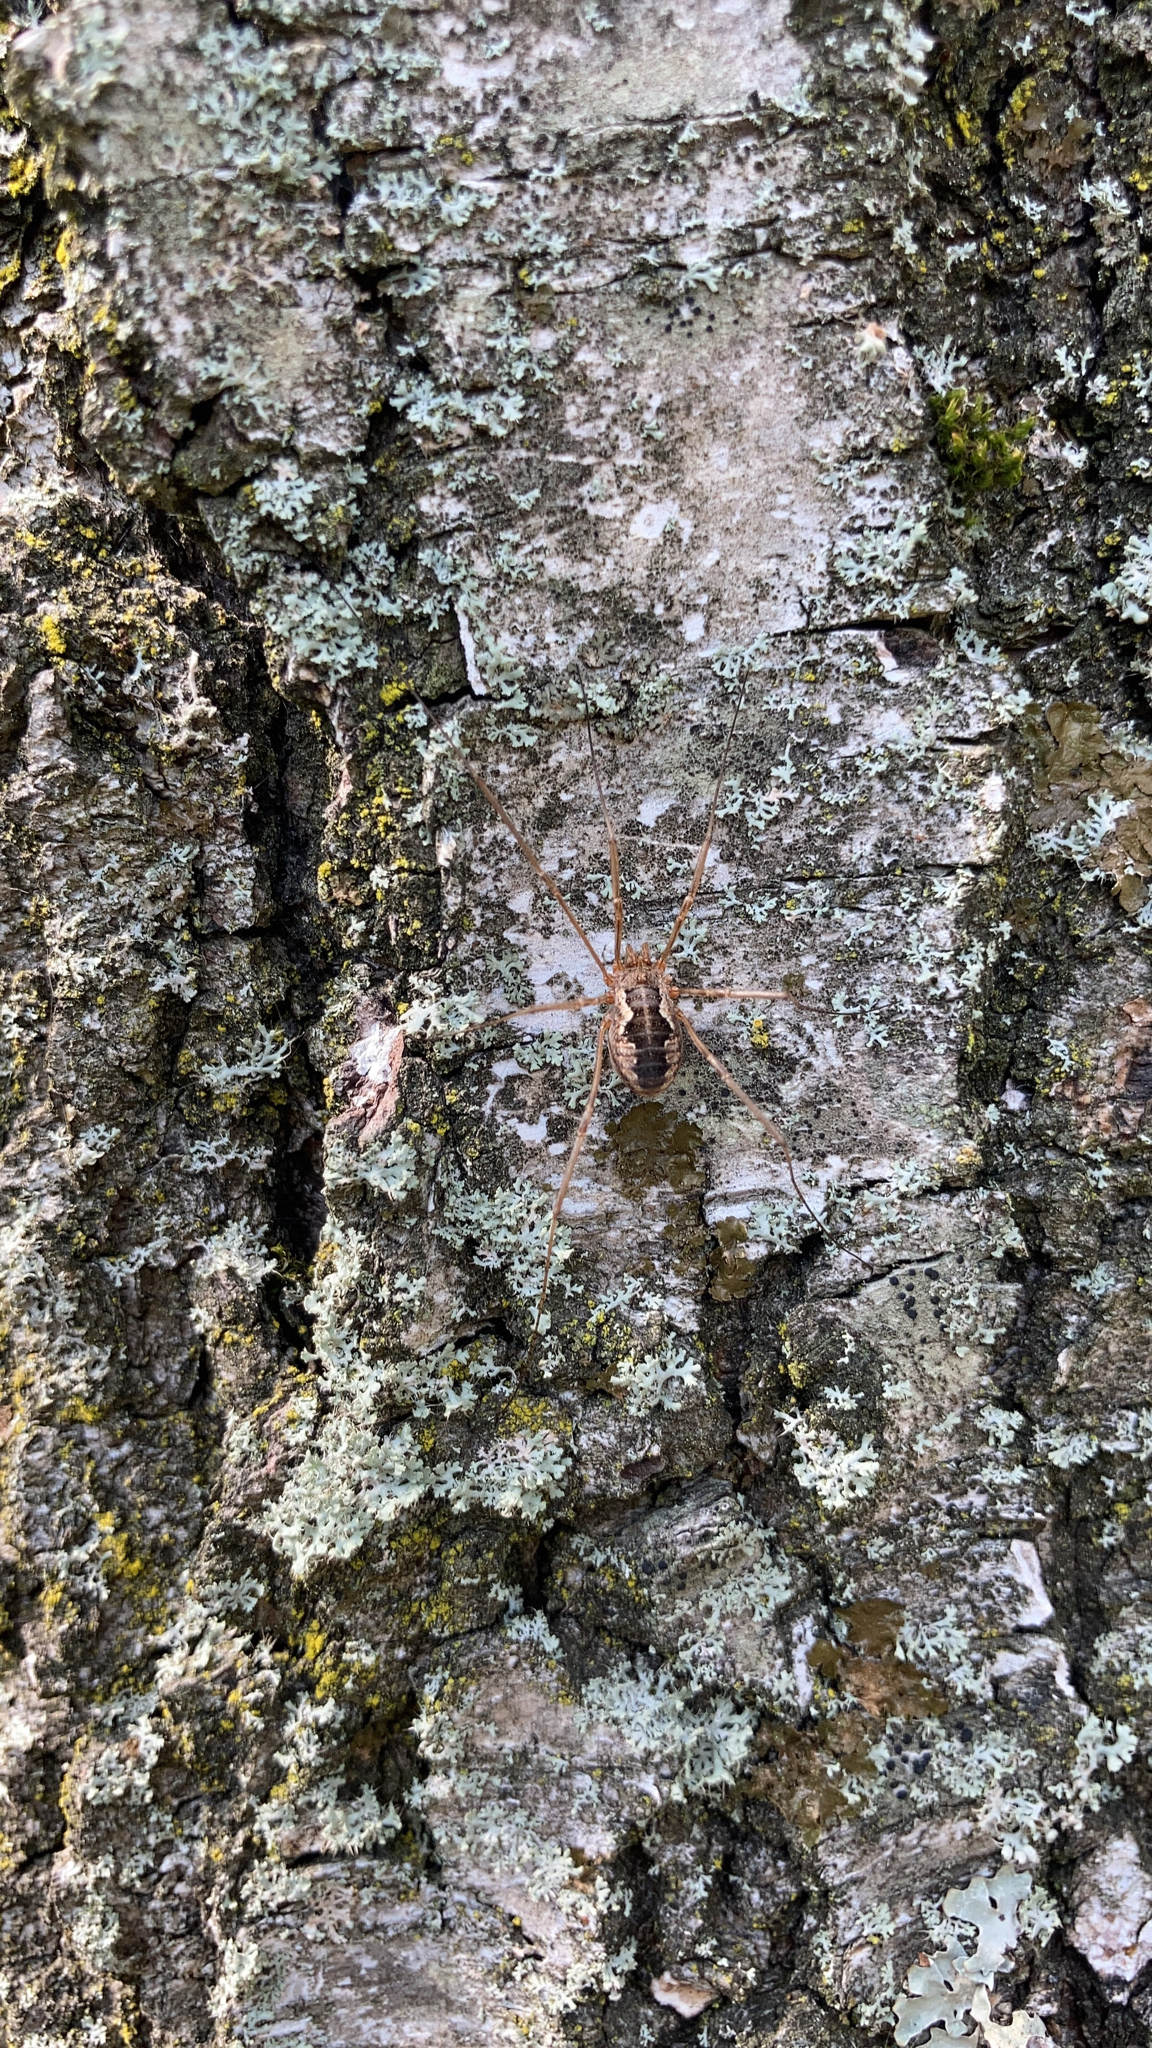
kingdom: Animalia
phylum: Arthropoda
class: Arachnida
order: Opiliones
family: Phalangiidae
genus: Phalangium
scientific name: Phalangium opilio
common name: Daddy longleg
